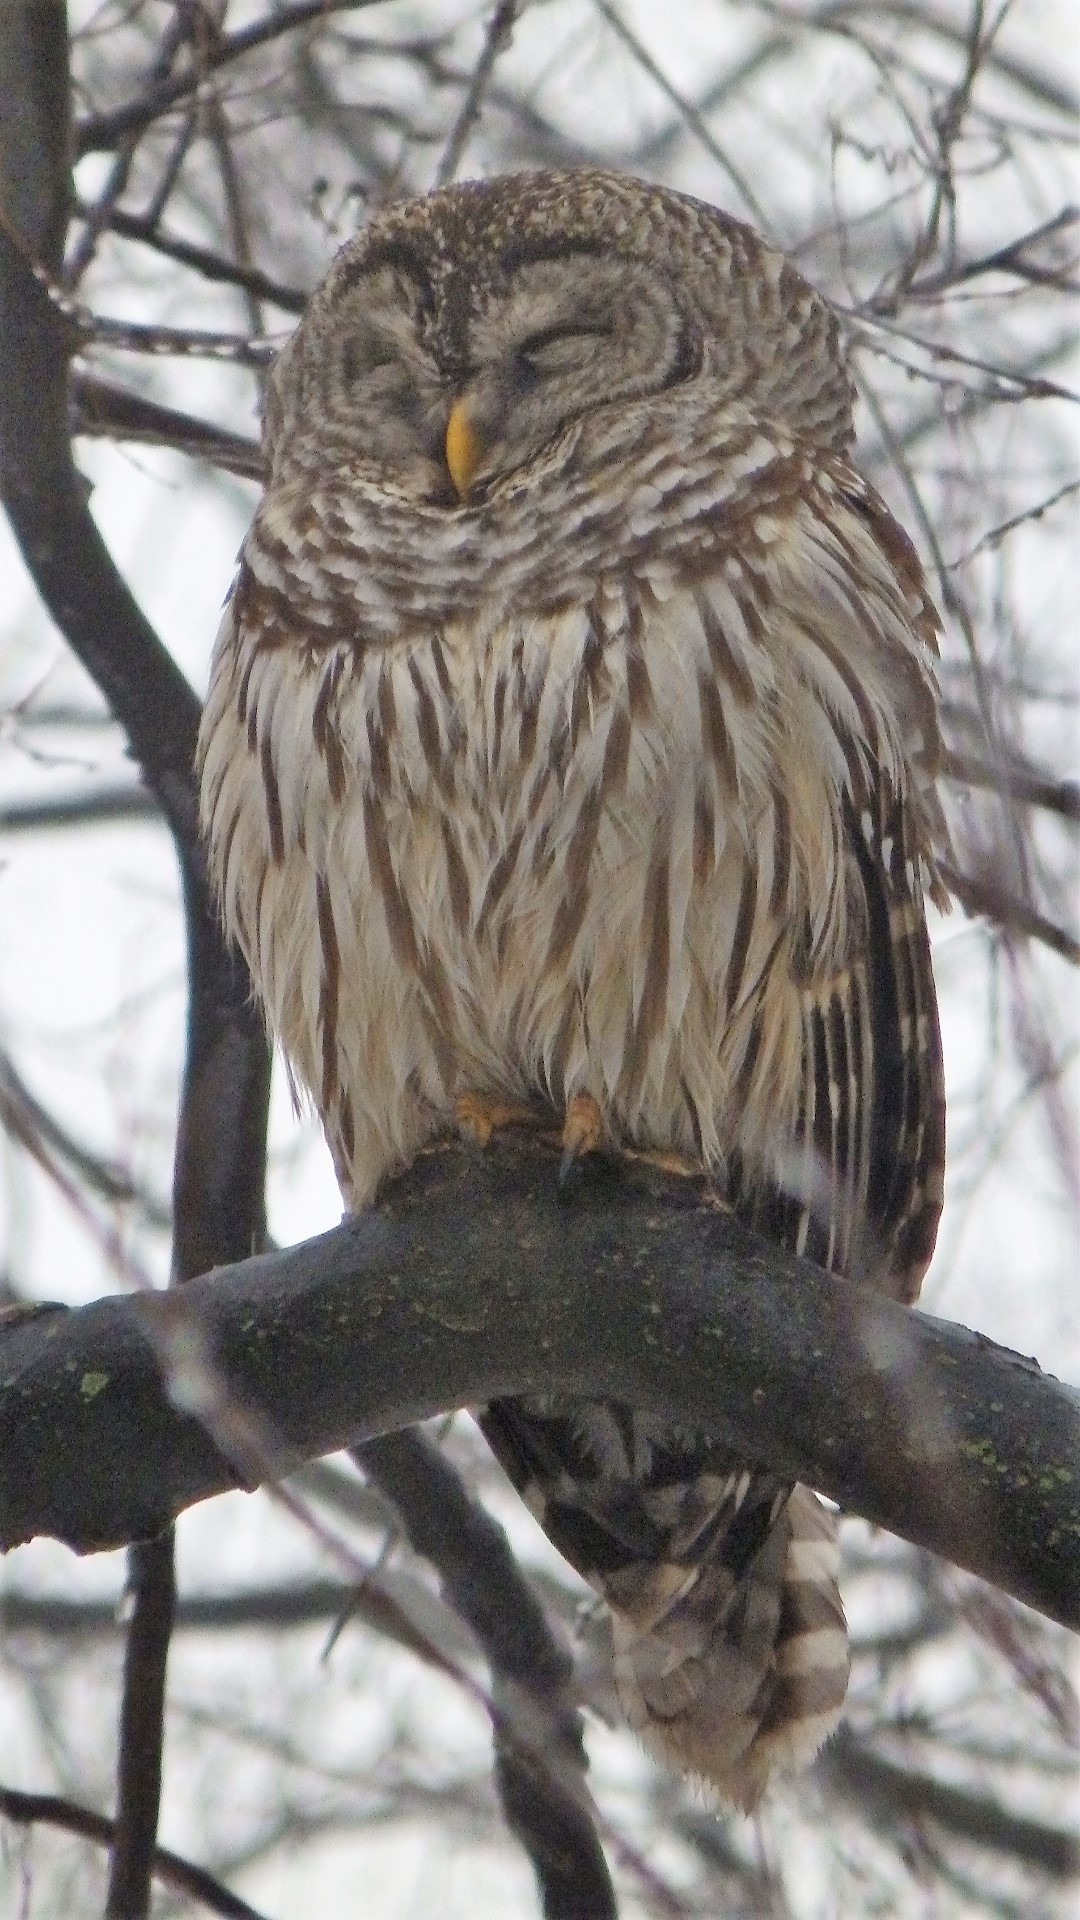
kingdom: Animalia
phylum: Chordata
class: Aves
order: Strigiformes
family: Strigidae
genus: Strix
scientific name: Strix varia
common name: Barred owl
